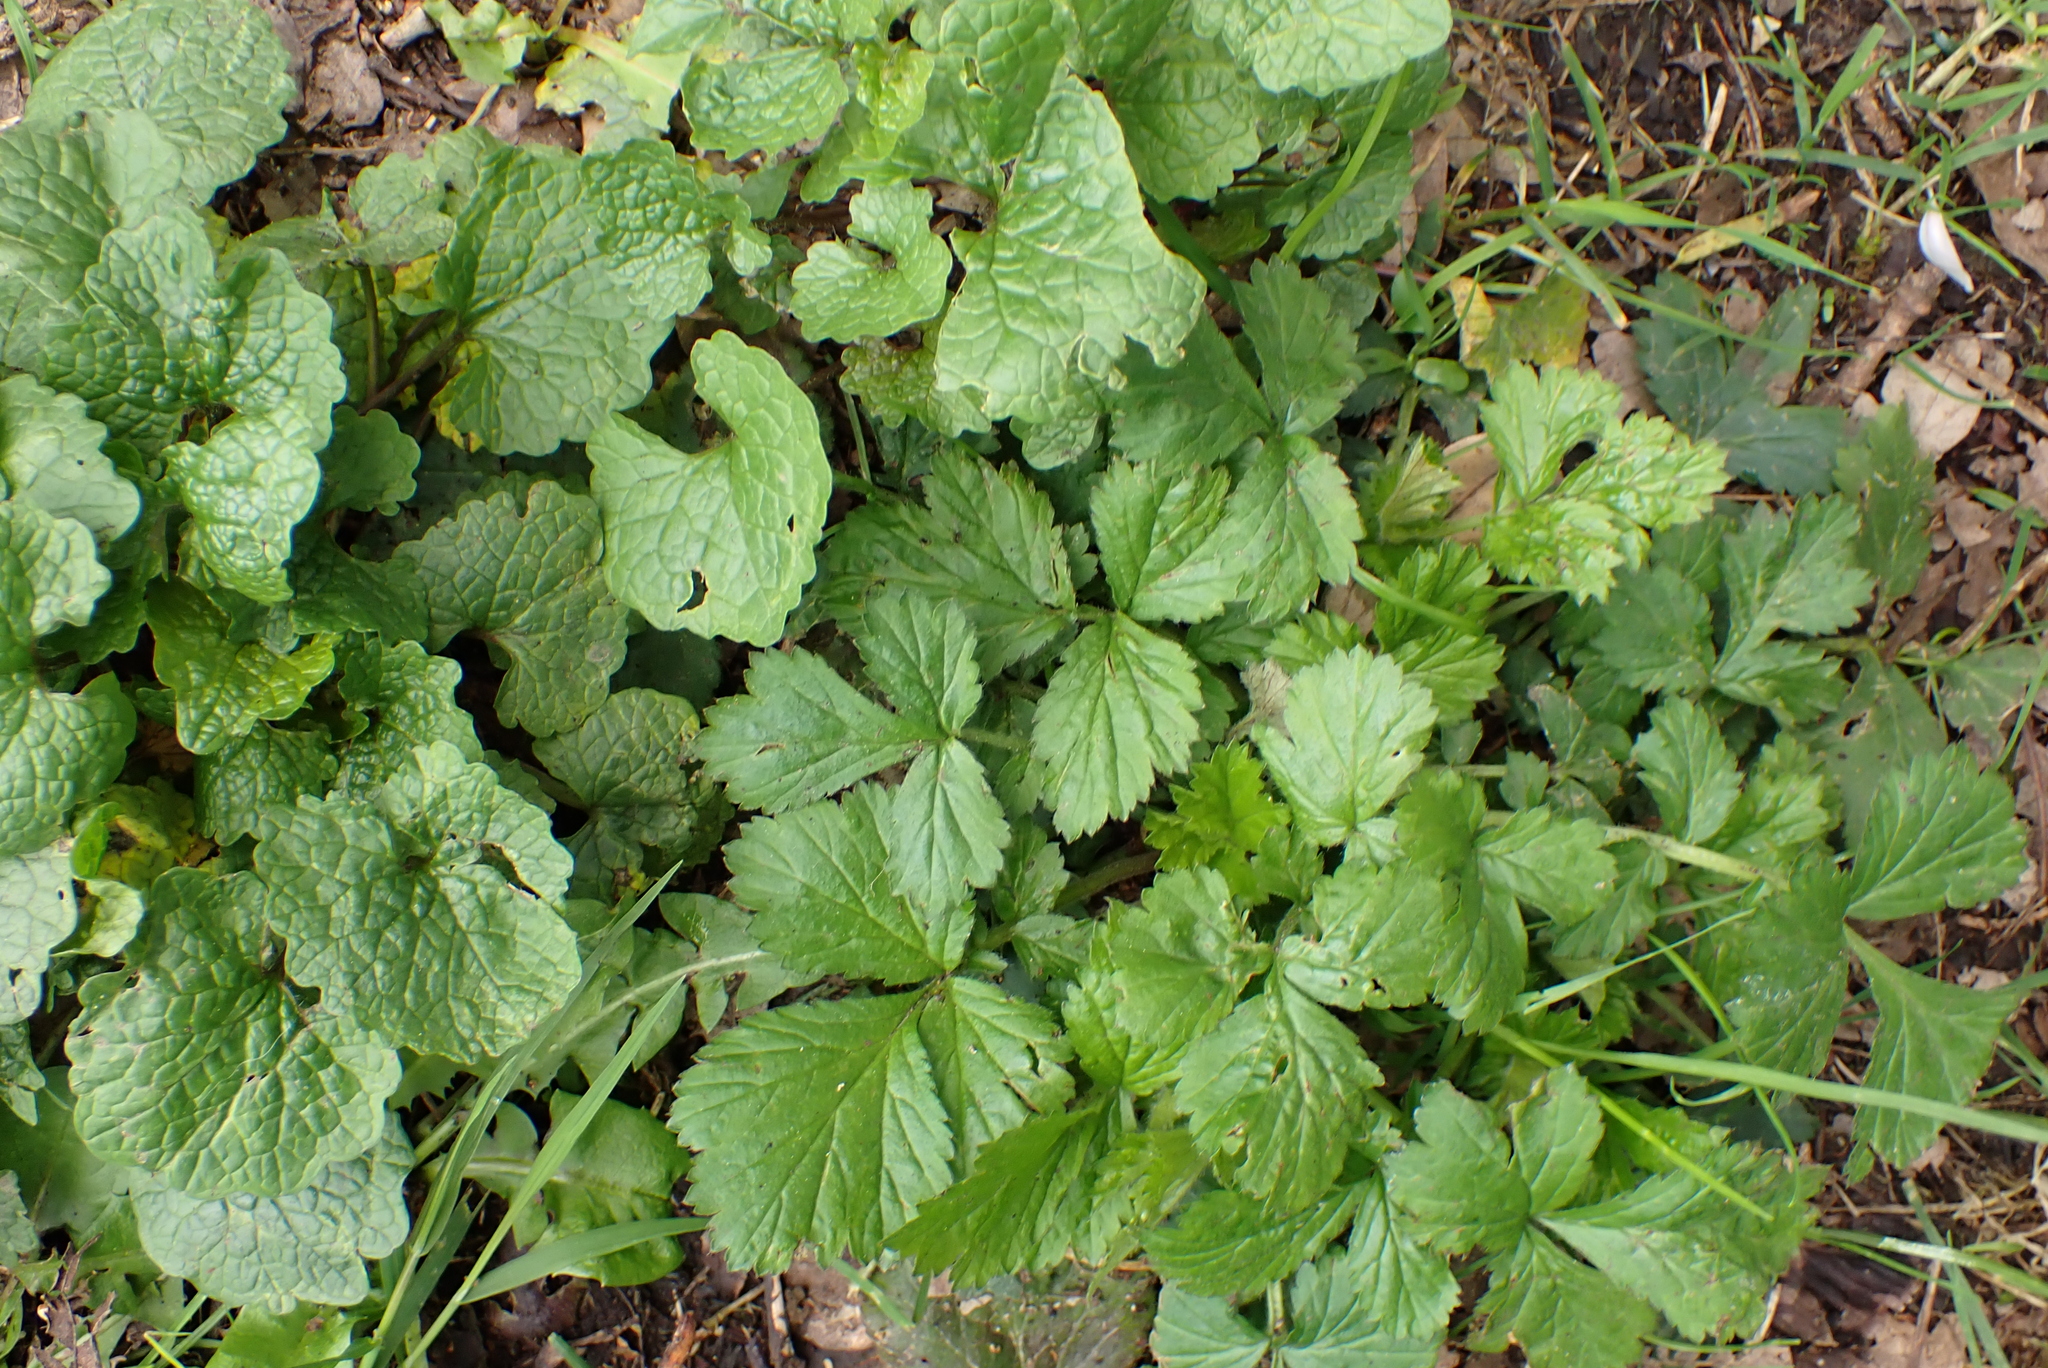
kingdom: Plantae
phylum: Tracheophyta
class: Magnoliopsida
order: Rosales
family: Rosaceae
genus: Geum
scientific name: Geum urbanum
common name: Wood avens
